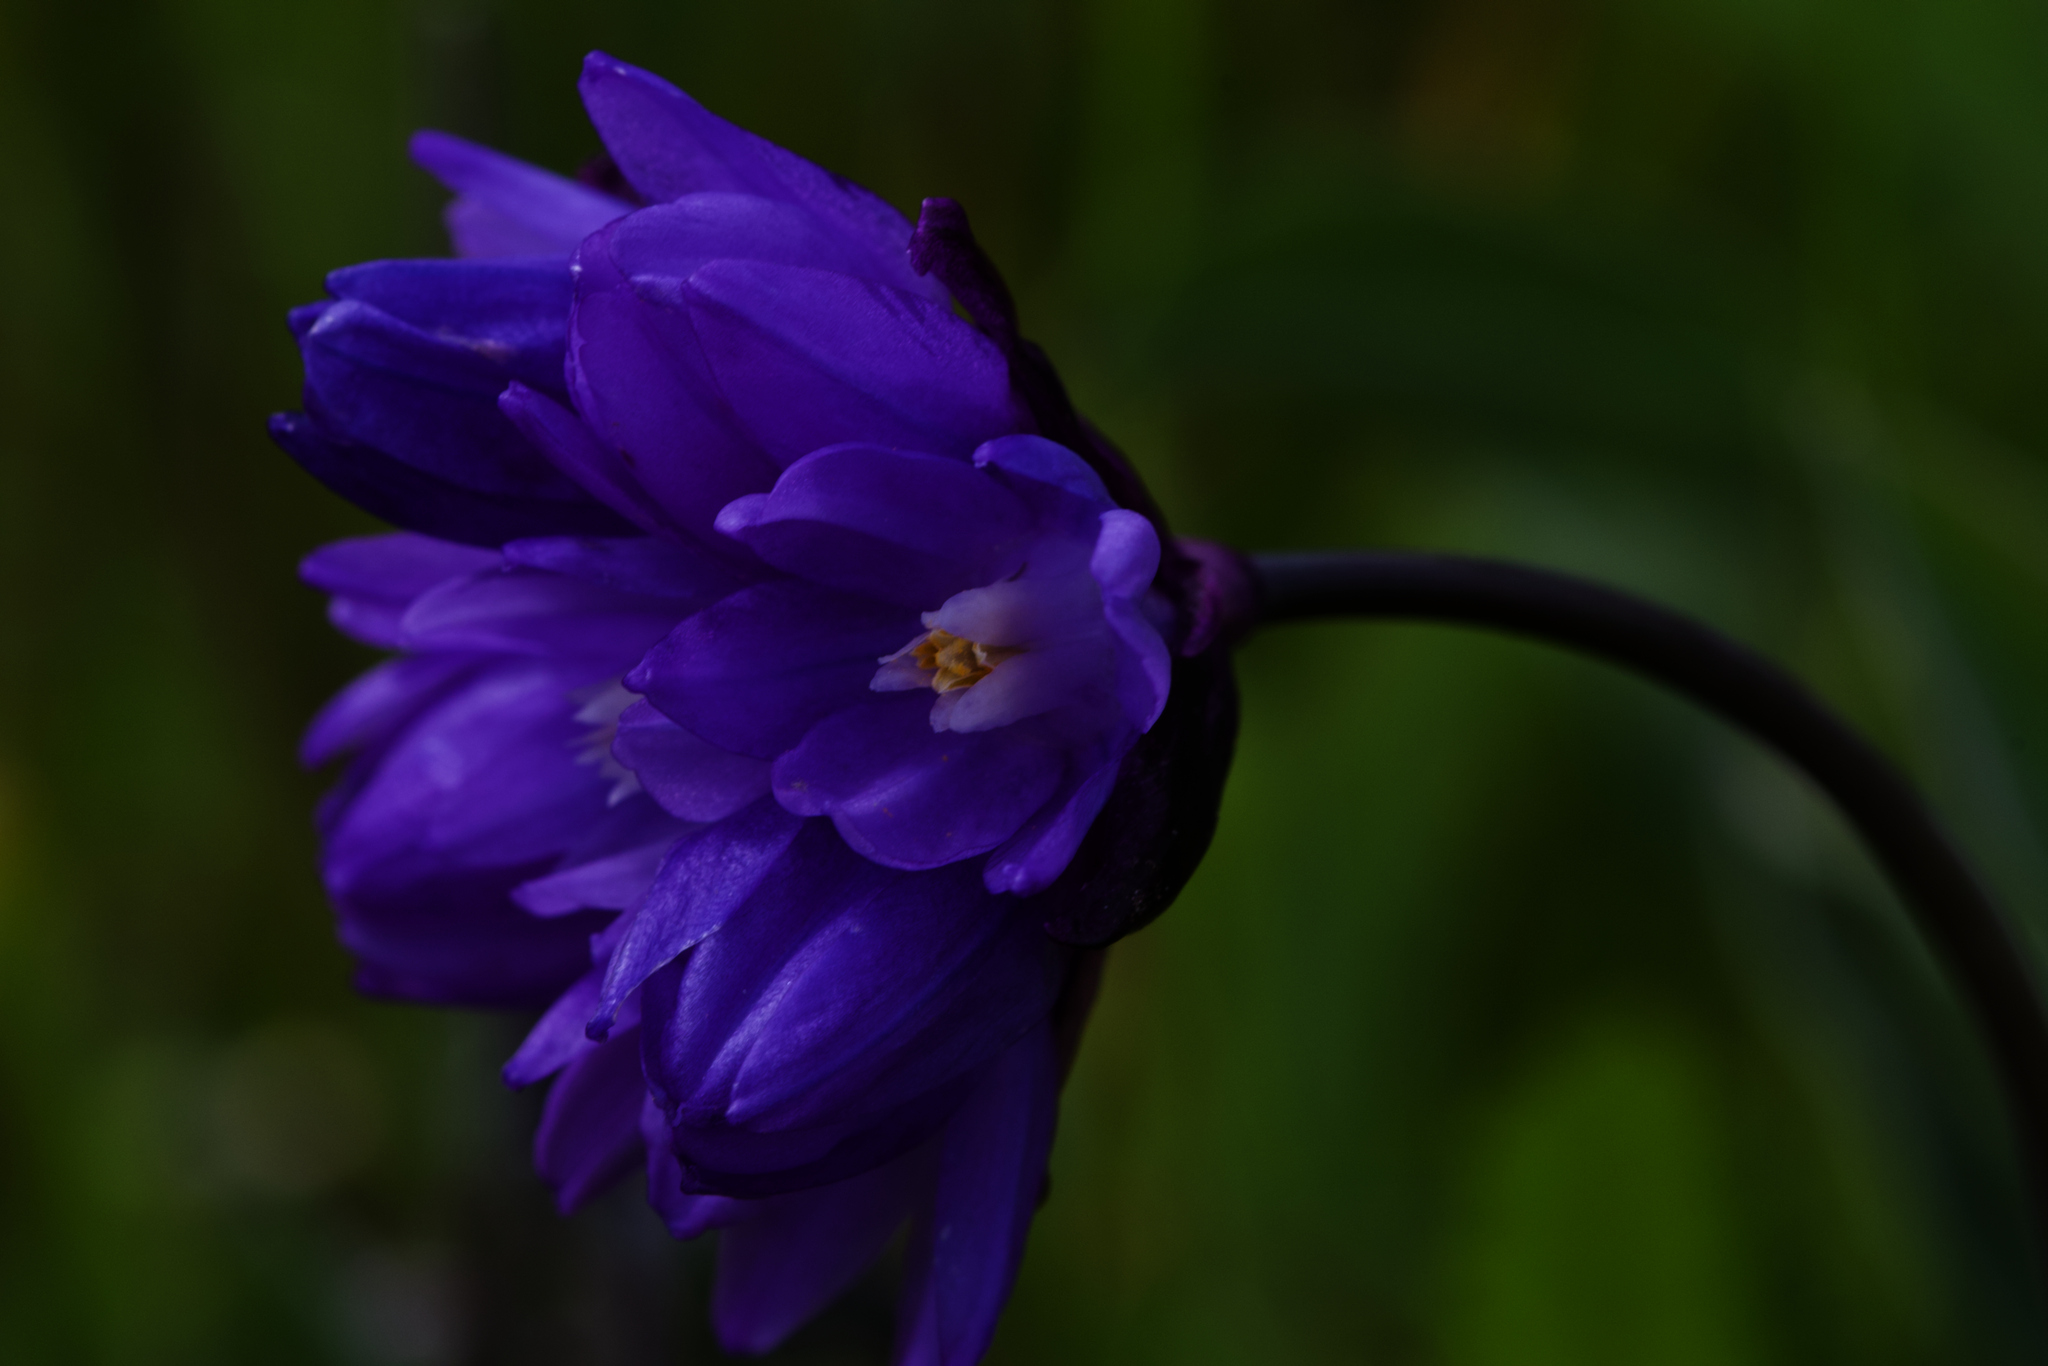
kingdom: Plantae
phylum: Tracheophyta
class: Liliopsida
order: Asparagales
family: Asparagaceae
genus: Dipterostemon
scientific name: Dipterostemon capitatus
